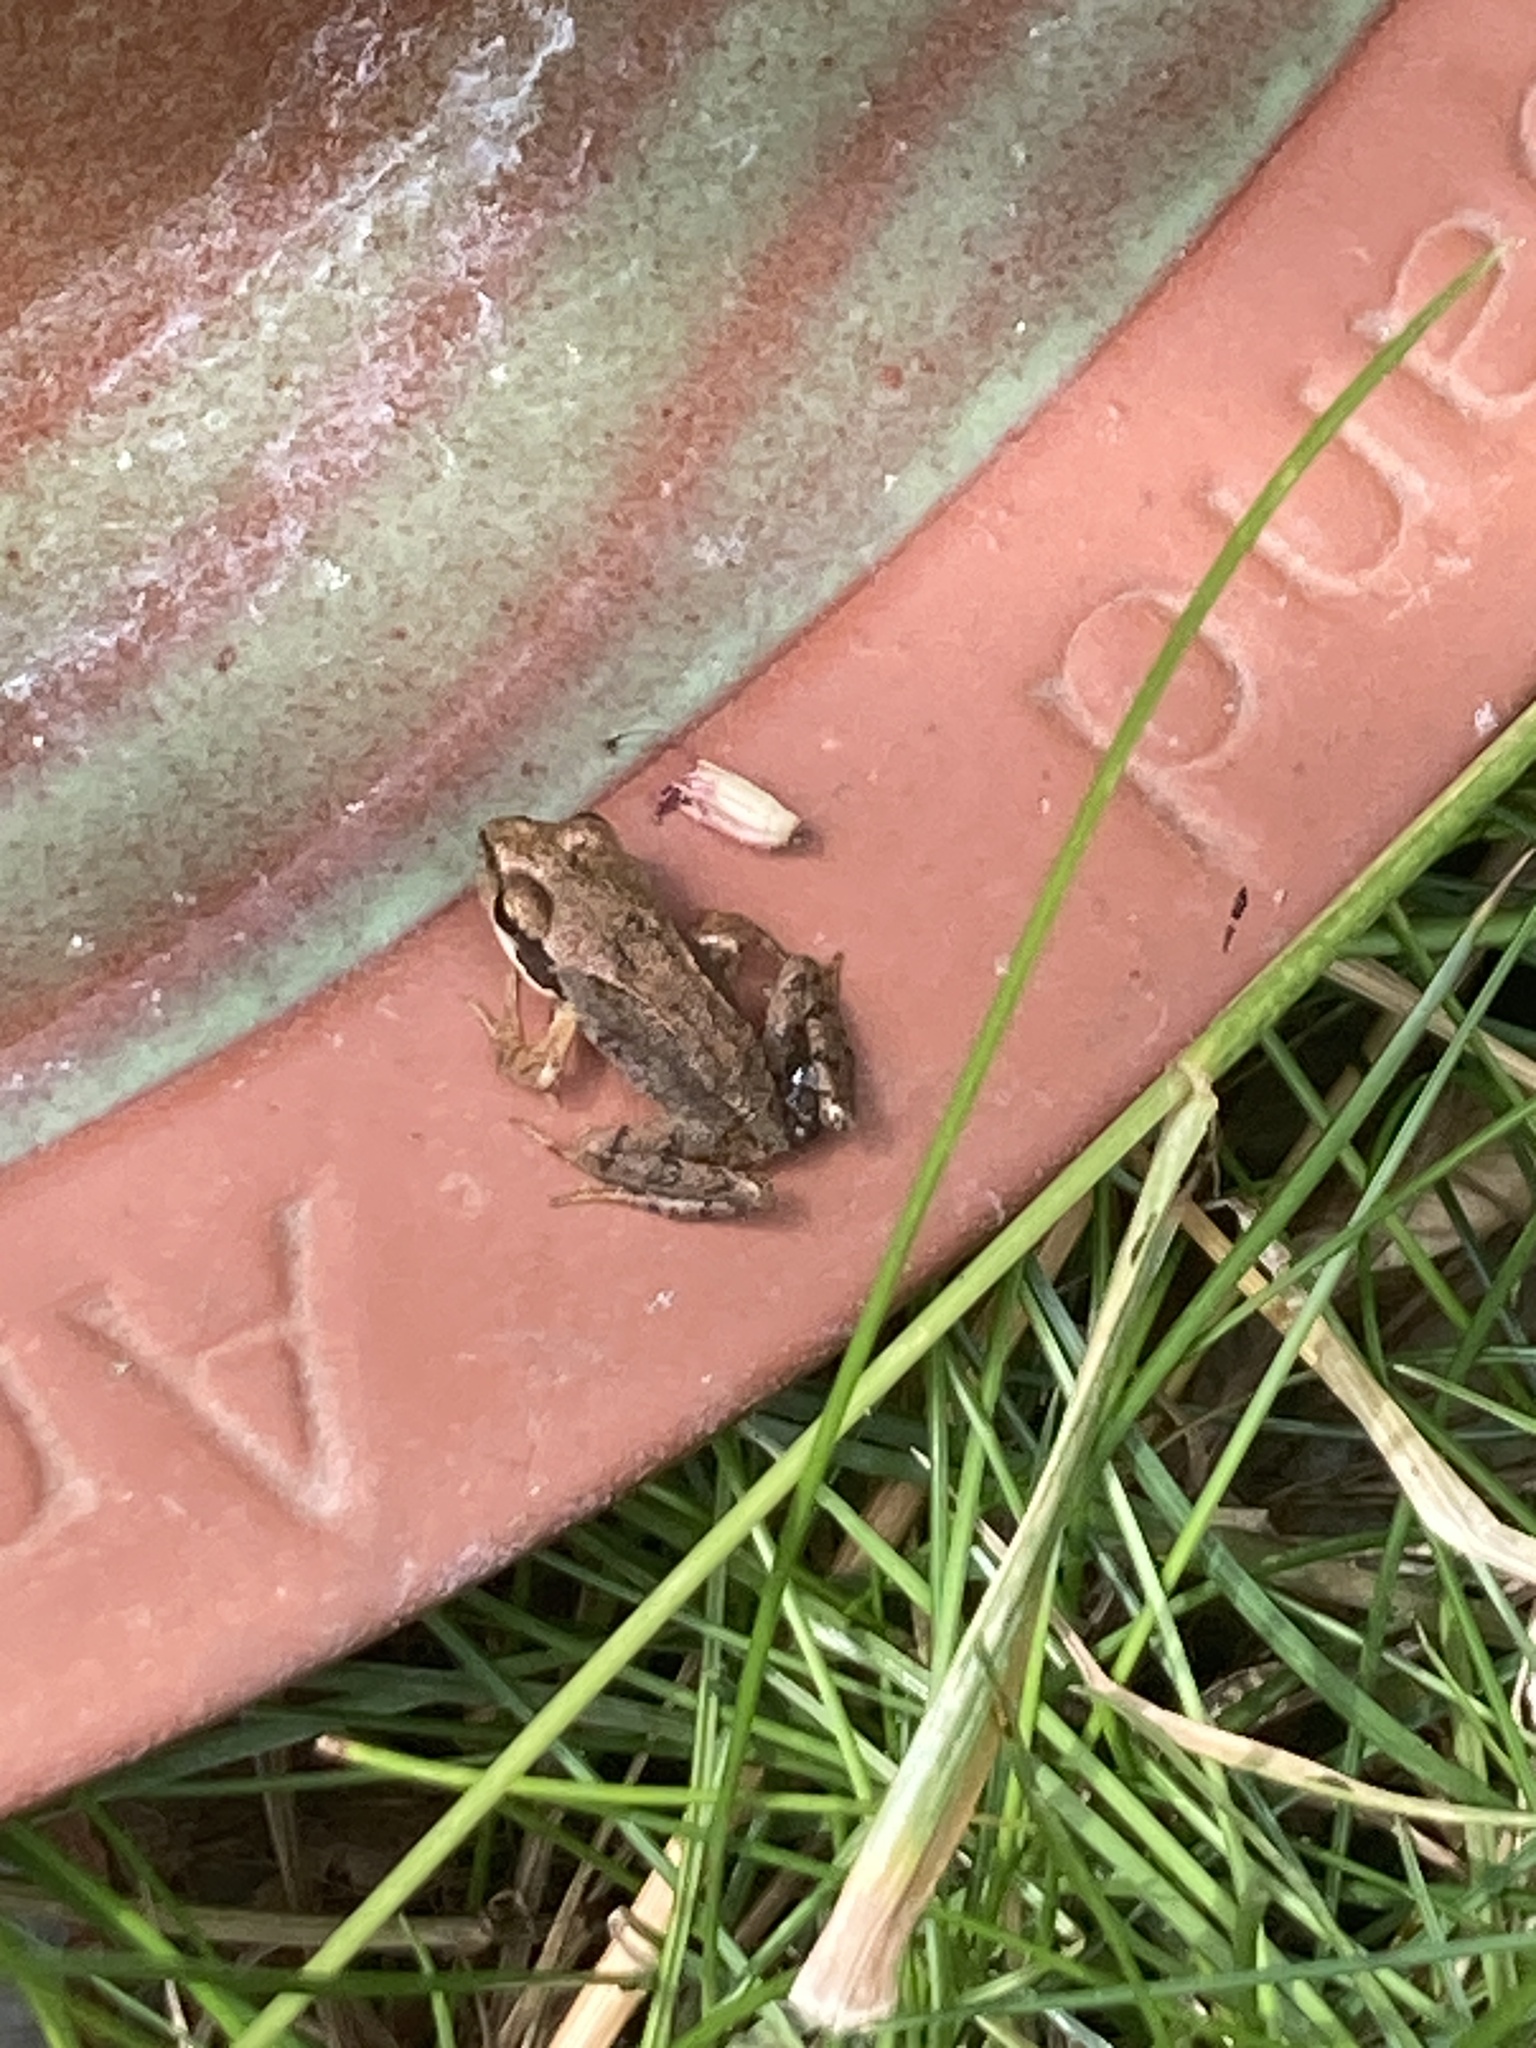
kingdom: Animalia
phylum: Chordata
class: Amphibia
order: Anura
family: Ranidae
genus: Rana
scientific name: Rana temporaria
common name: Common frog
